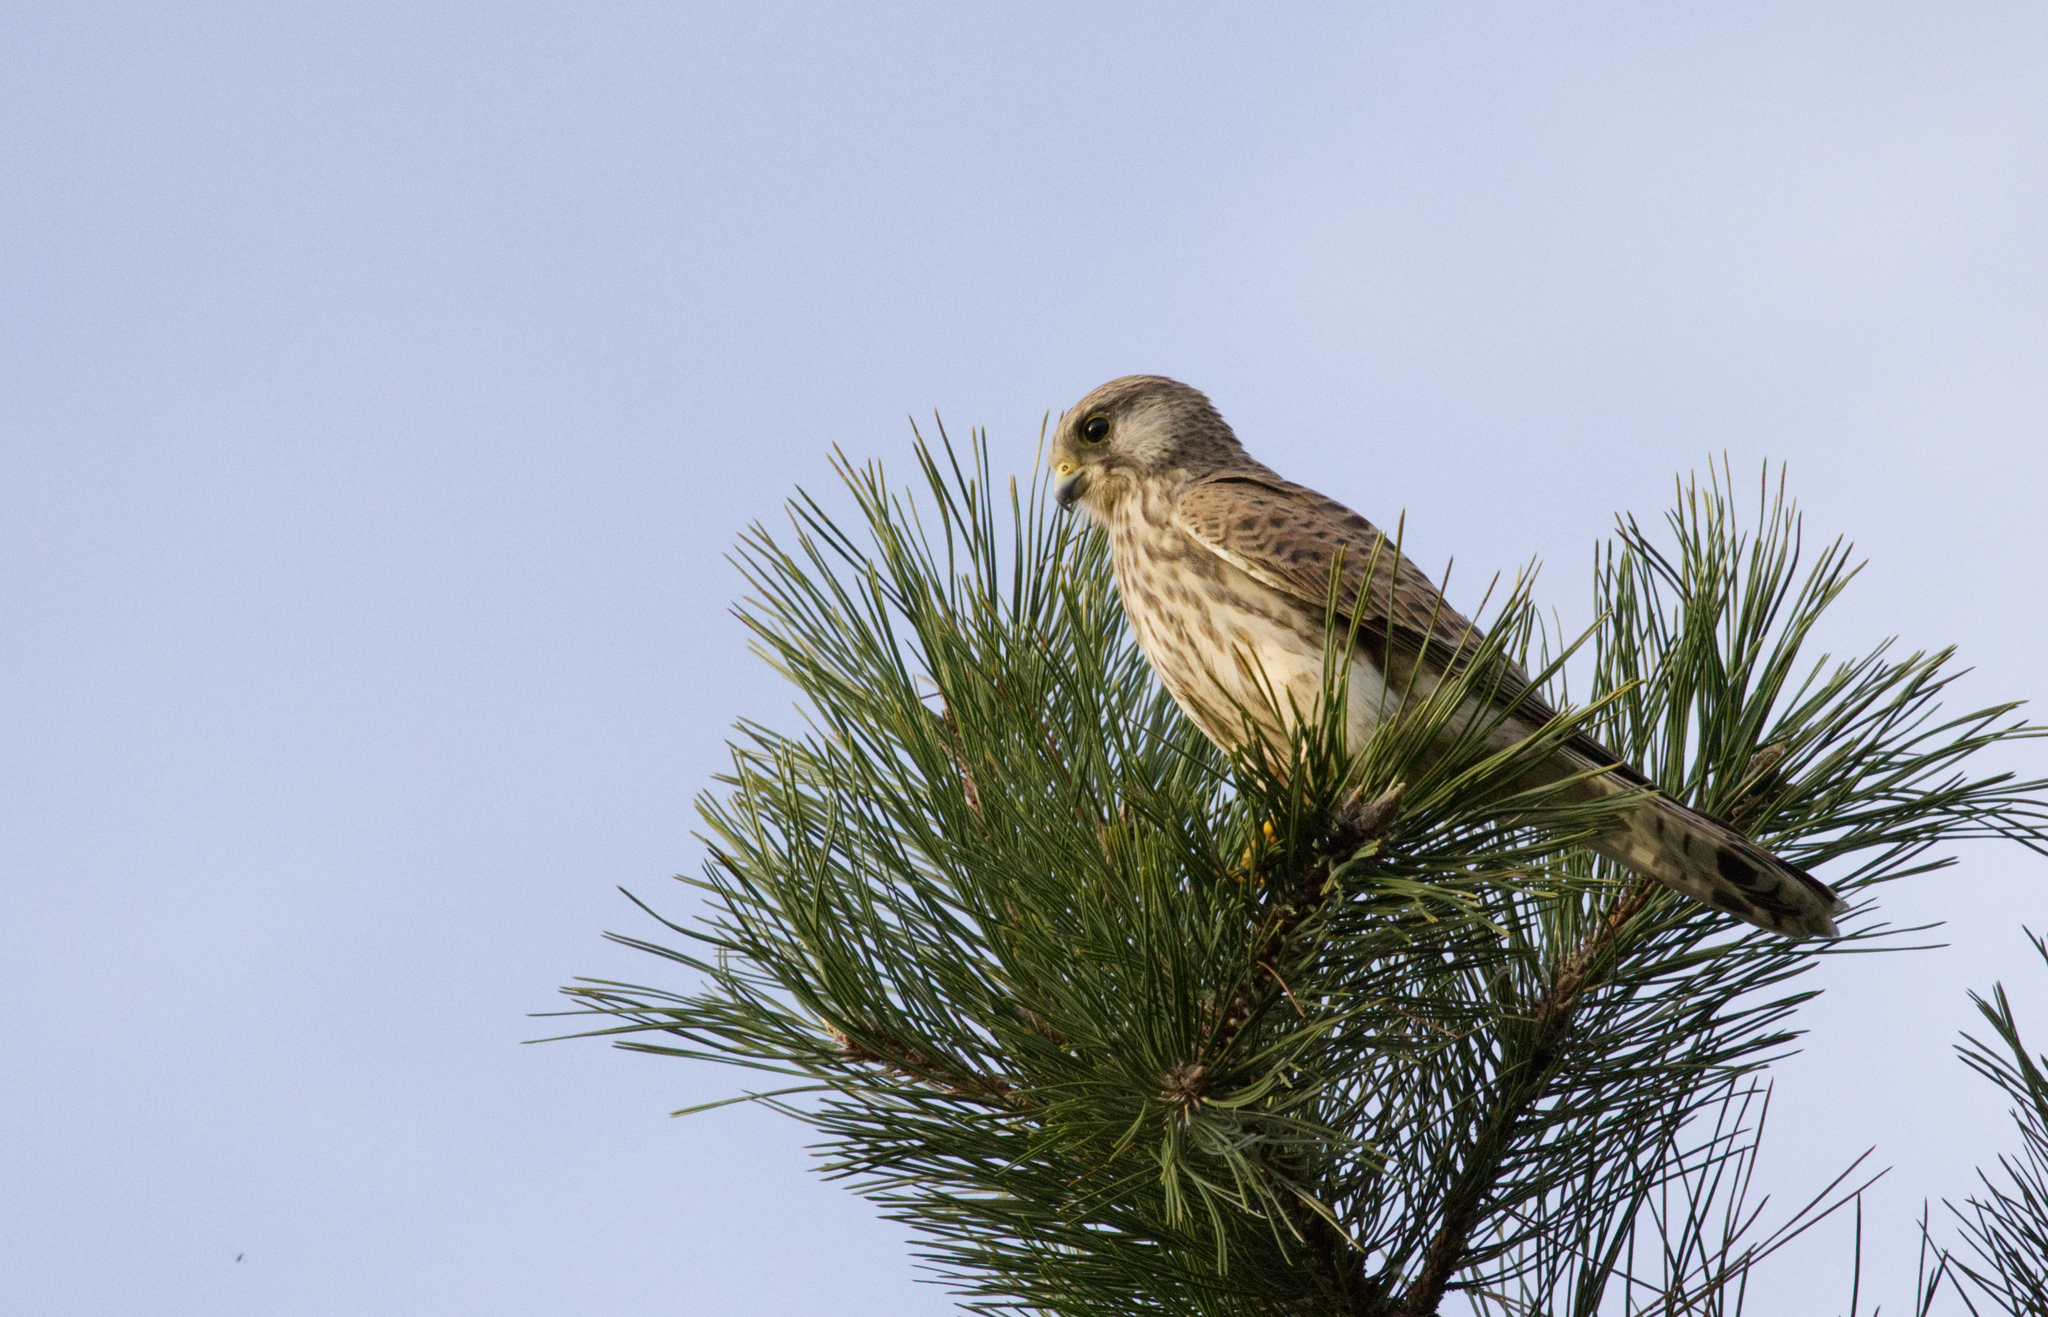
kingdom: Animalia
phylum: Chordata
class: Aves
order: Falconiformes
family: Falconidae
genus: Falco
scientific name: Falco tinnunculus
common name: Common kestrel
